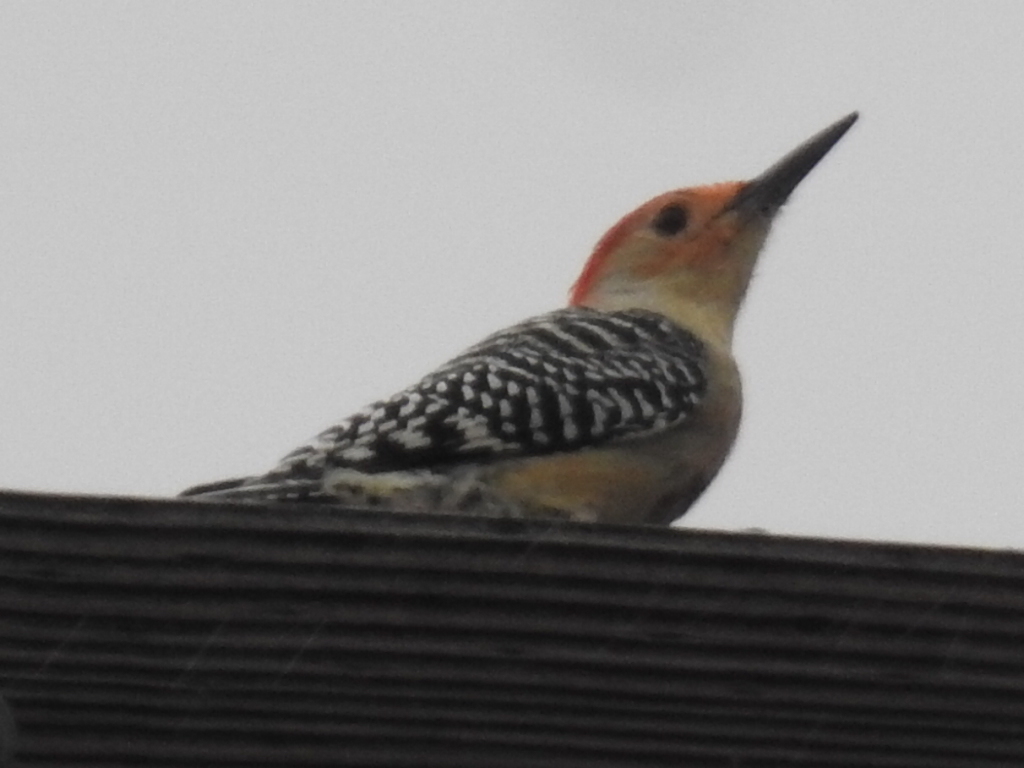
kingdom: Animalia
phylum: Chordata
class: Aves
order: Piciformes
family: Picidae
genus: Melanerpes
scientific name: Melanerpes carolinus
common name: Red-bellied woodpecker
